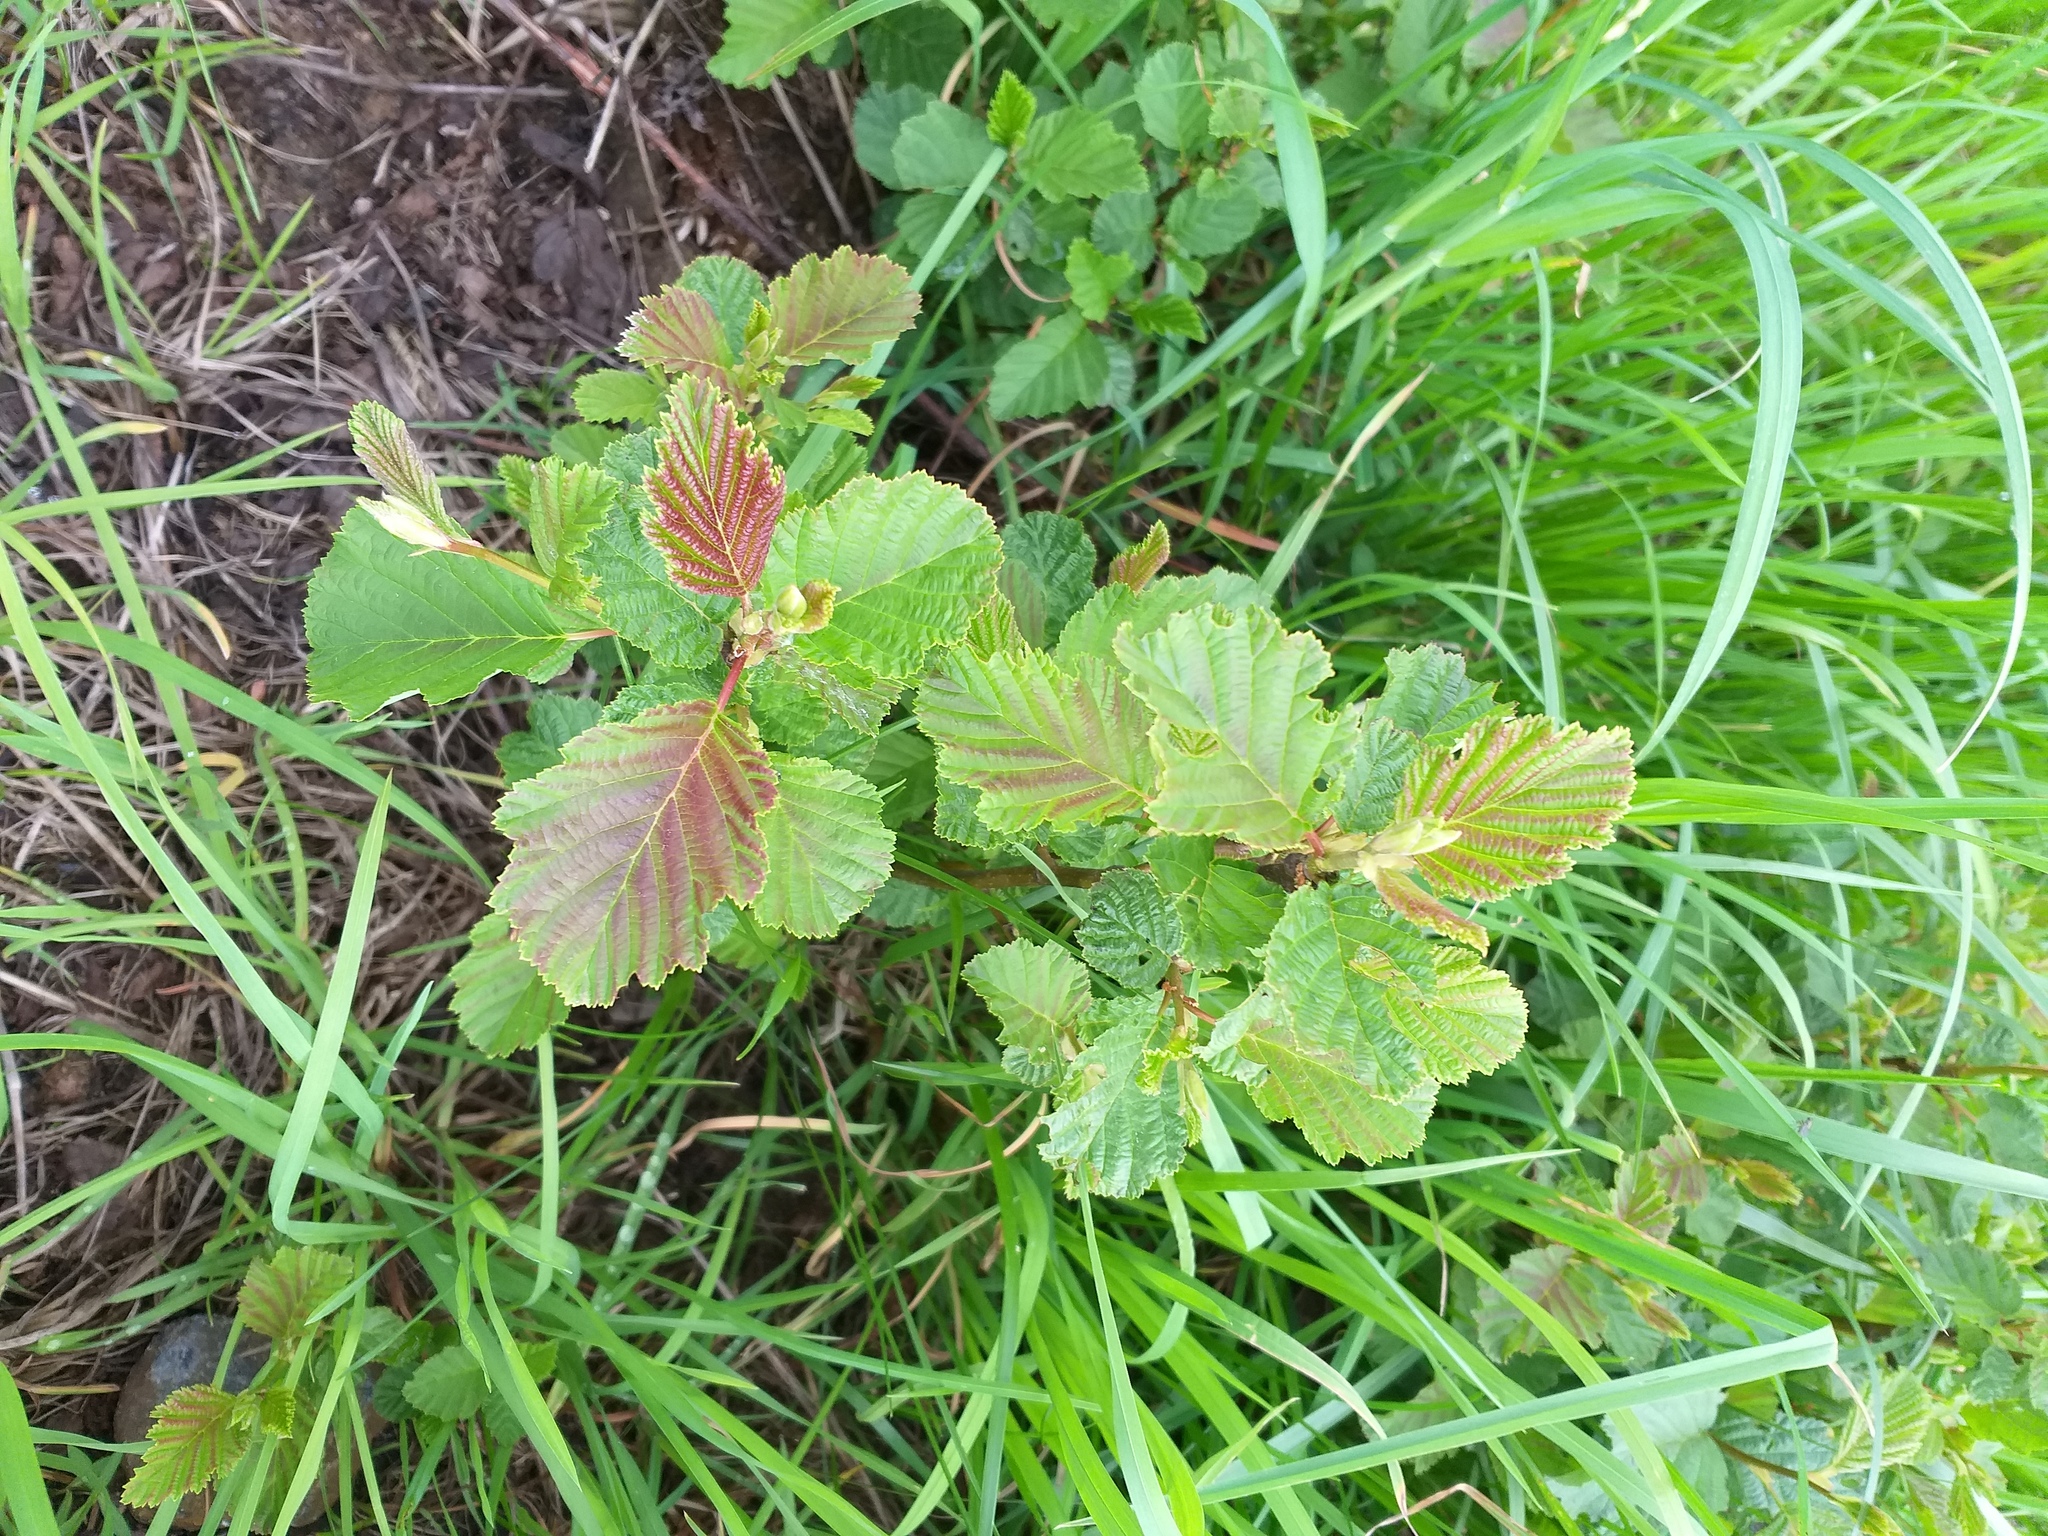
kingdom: Plantae
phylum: Tracheophyta
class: Magnoliopsida
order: Fagales
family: Betulaceae
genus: Alnus
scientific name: Alnus glutinosa
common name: Black alder
